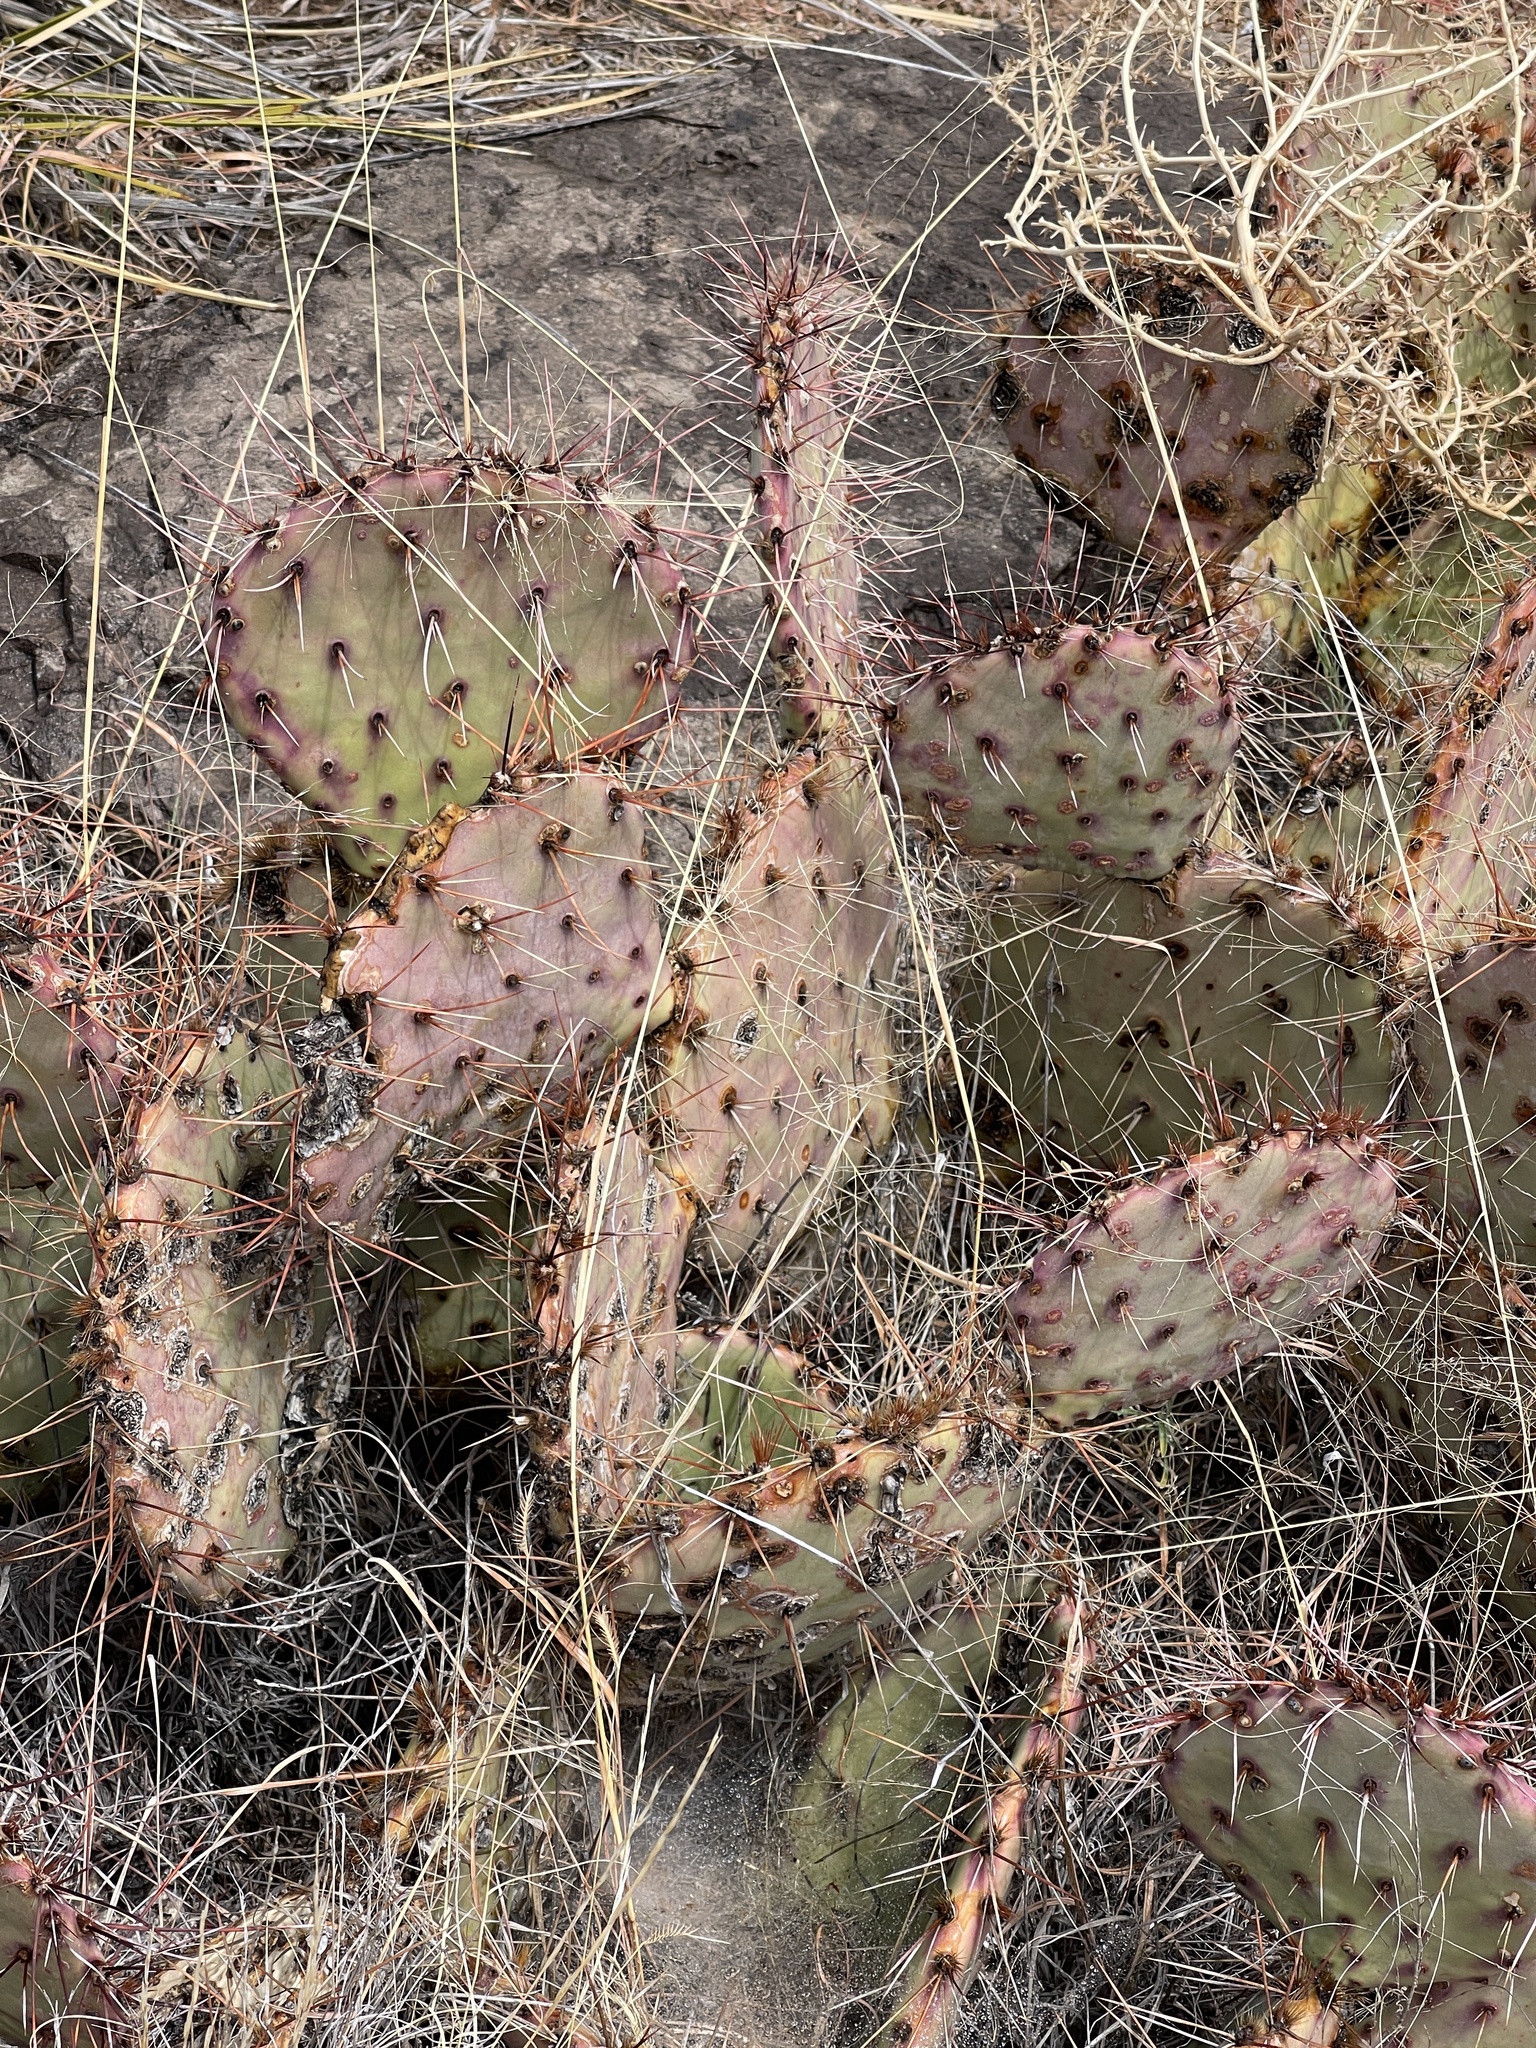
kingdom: Plantae
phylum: Tracheophyta
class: Magnoliopsida
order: Caryophyllales
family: Cactaceae
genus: Opuntia
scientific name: Opuntia macrocentra
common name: Purple prickly-pear
